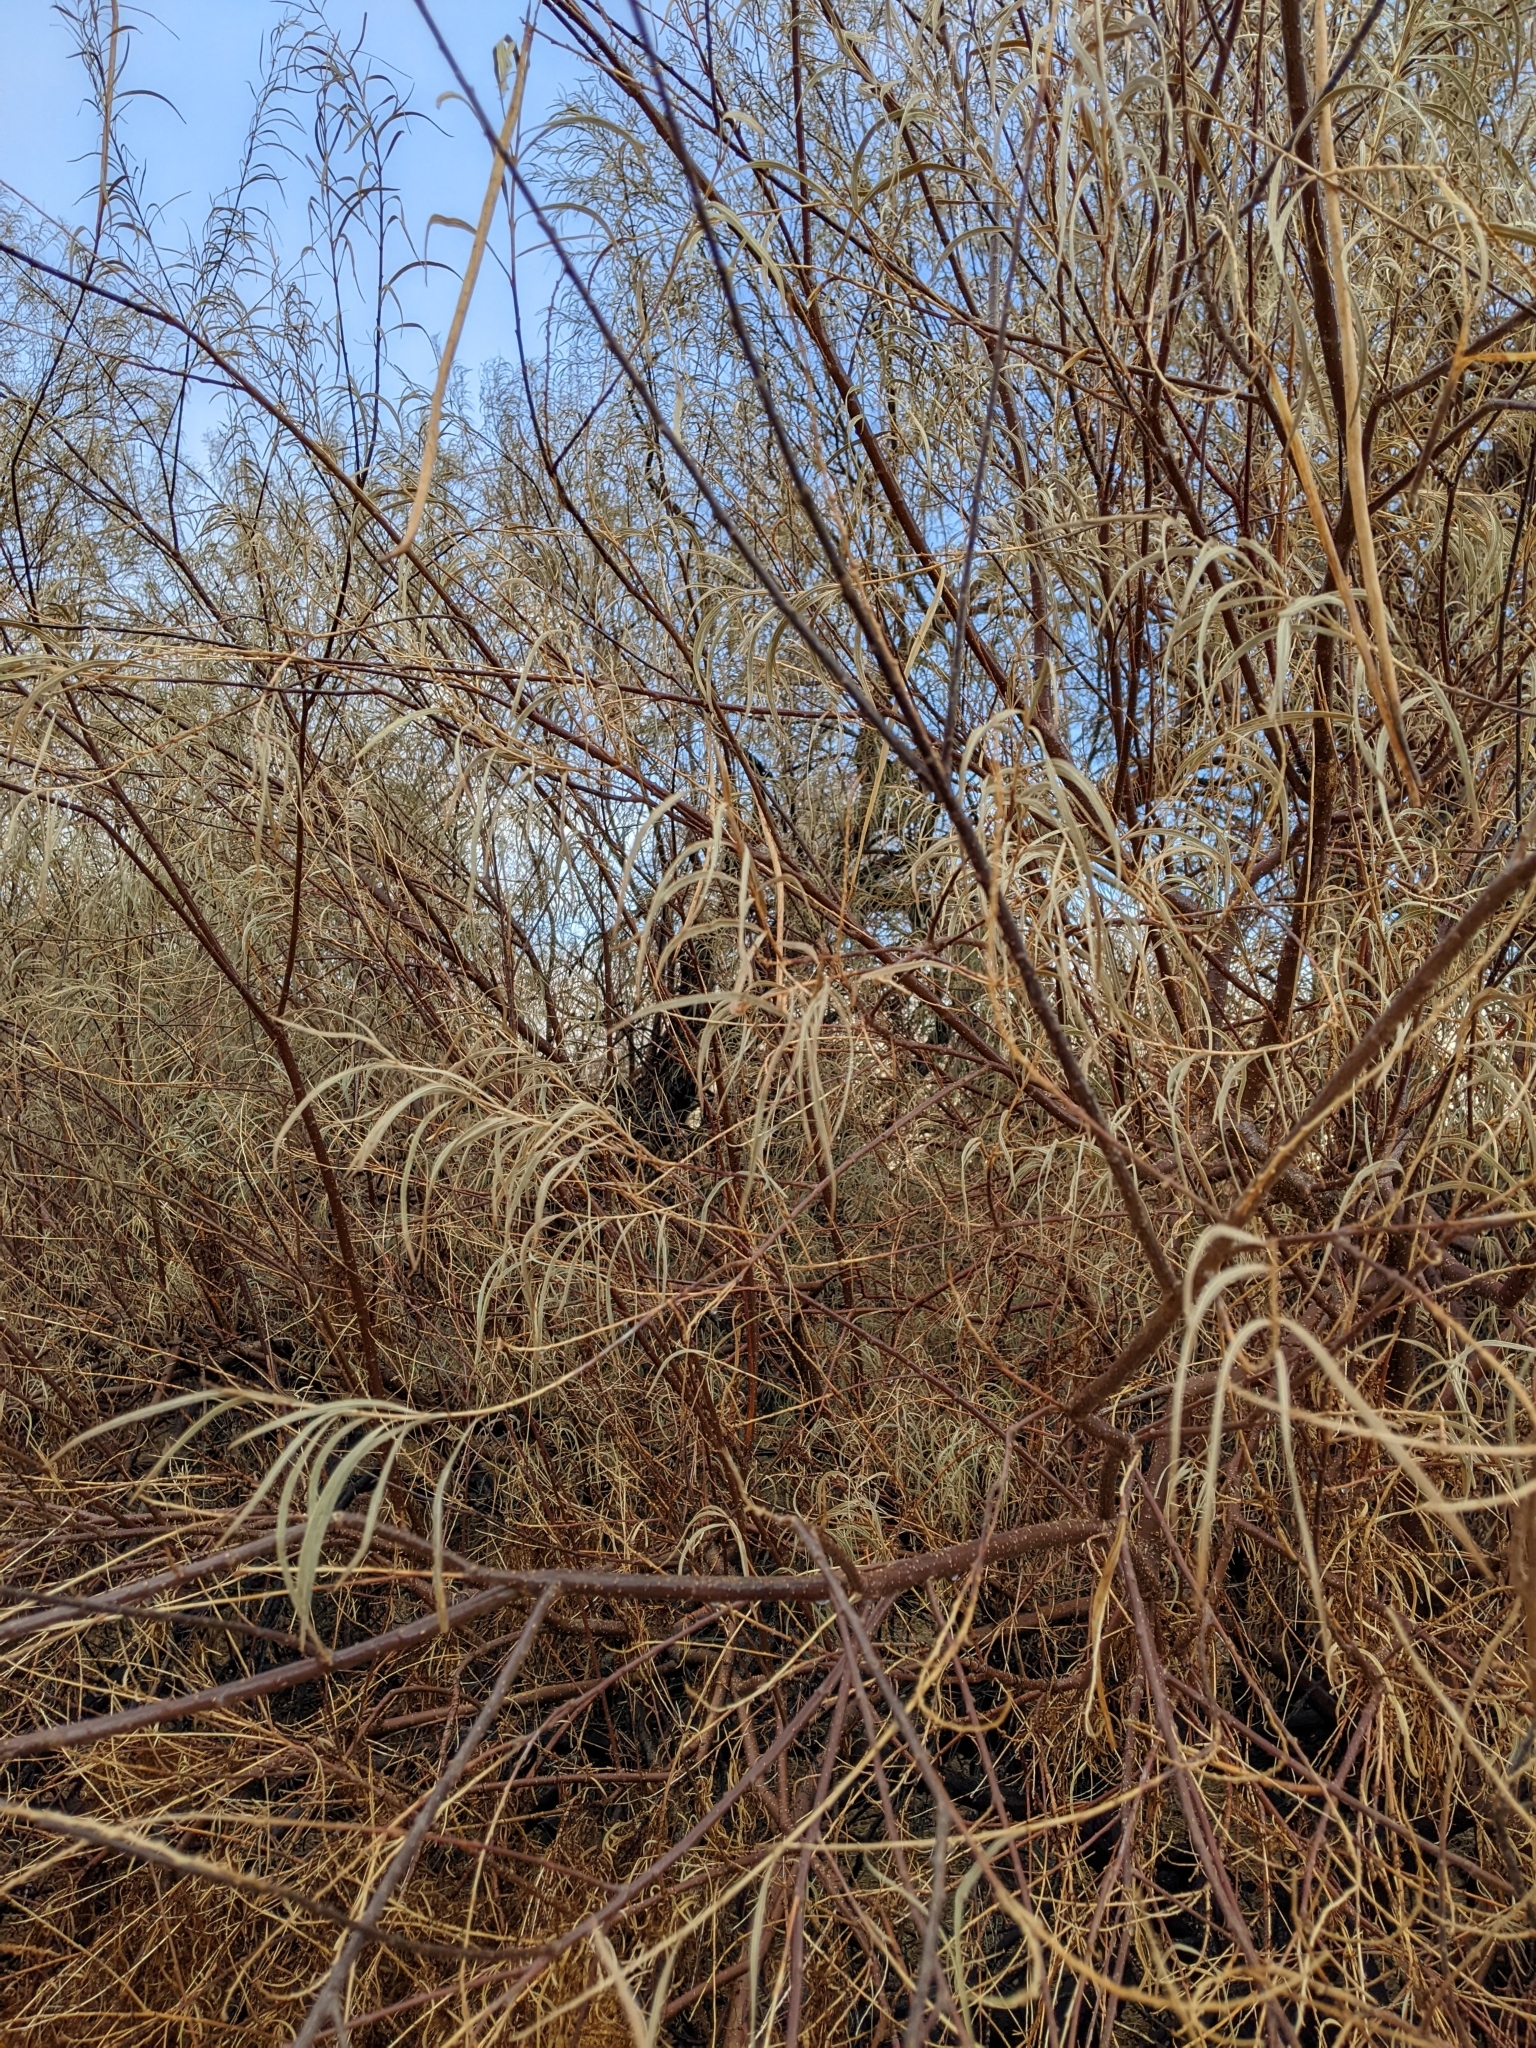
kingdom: Plantae
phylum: Tracheophyta
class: Magnoliopsida
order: Lamiales
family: Bignoniaceae
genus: Chilopsis
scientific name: Chilopsis linearis
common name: Desert-willow
